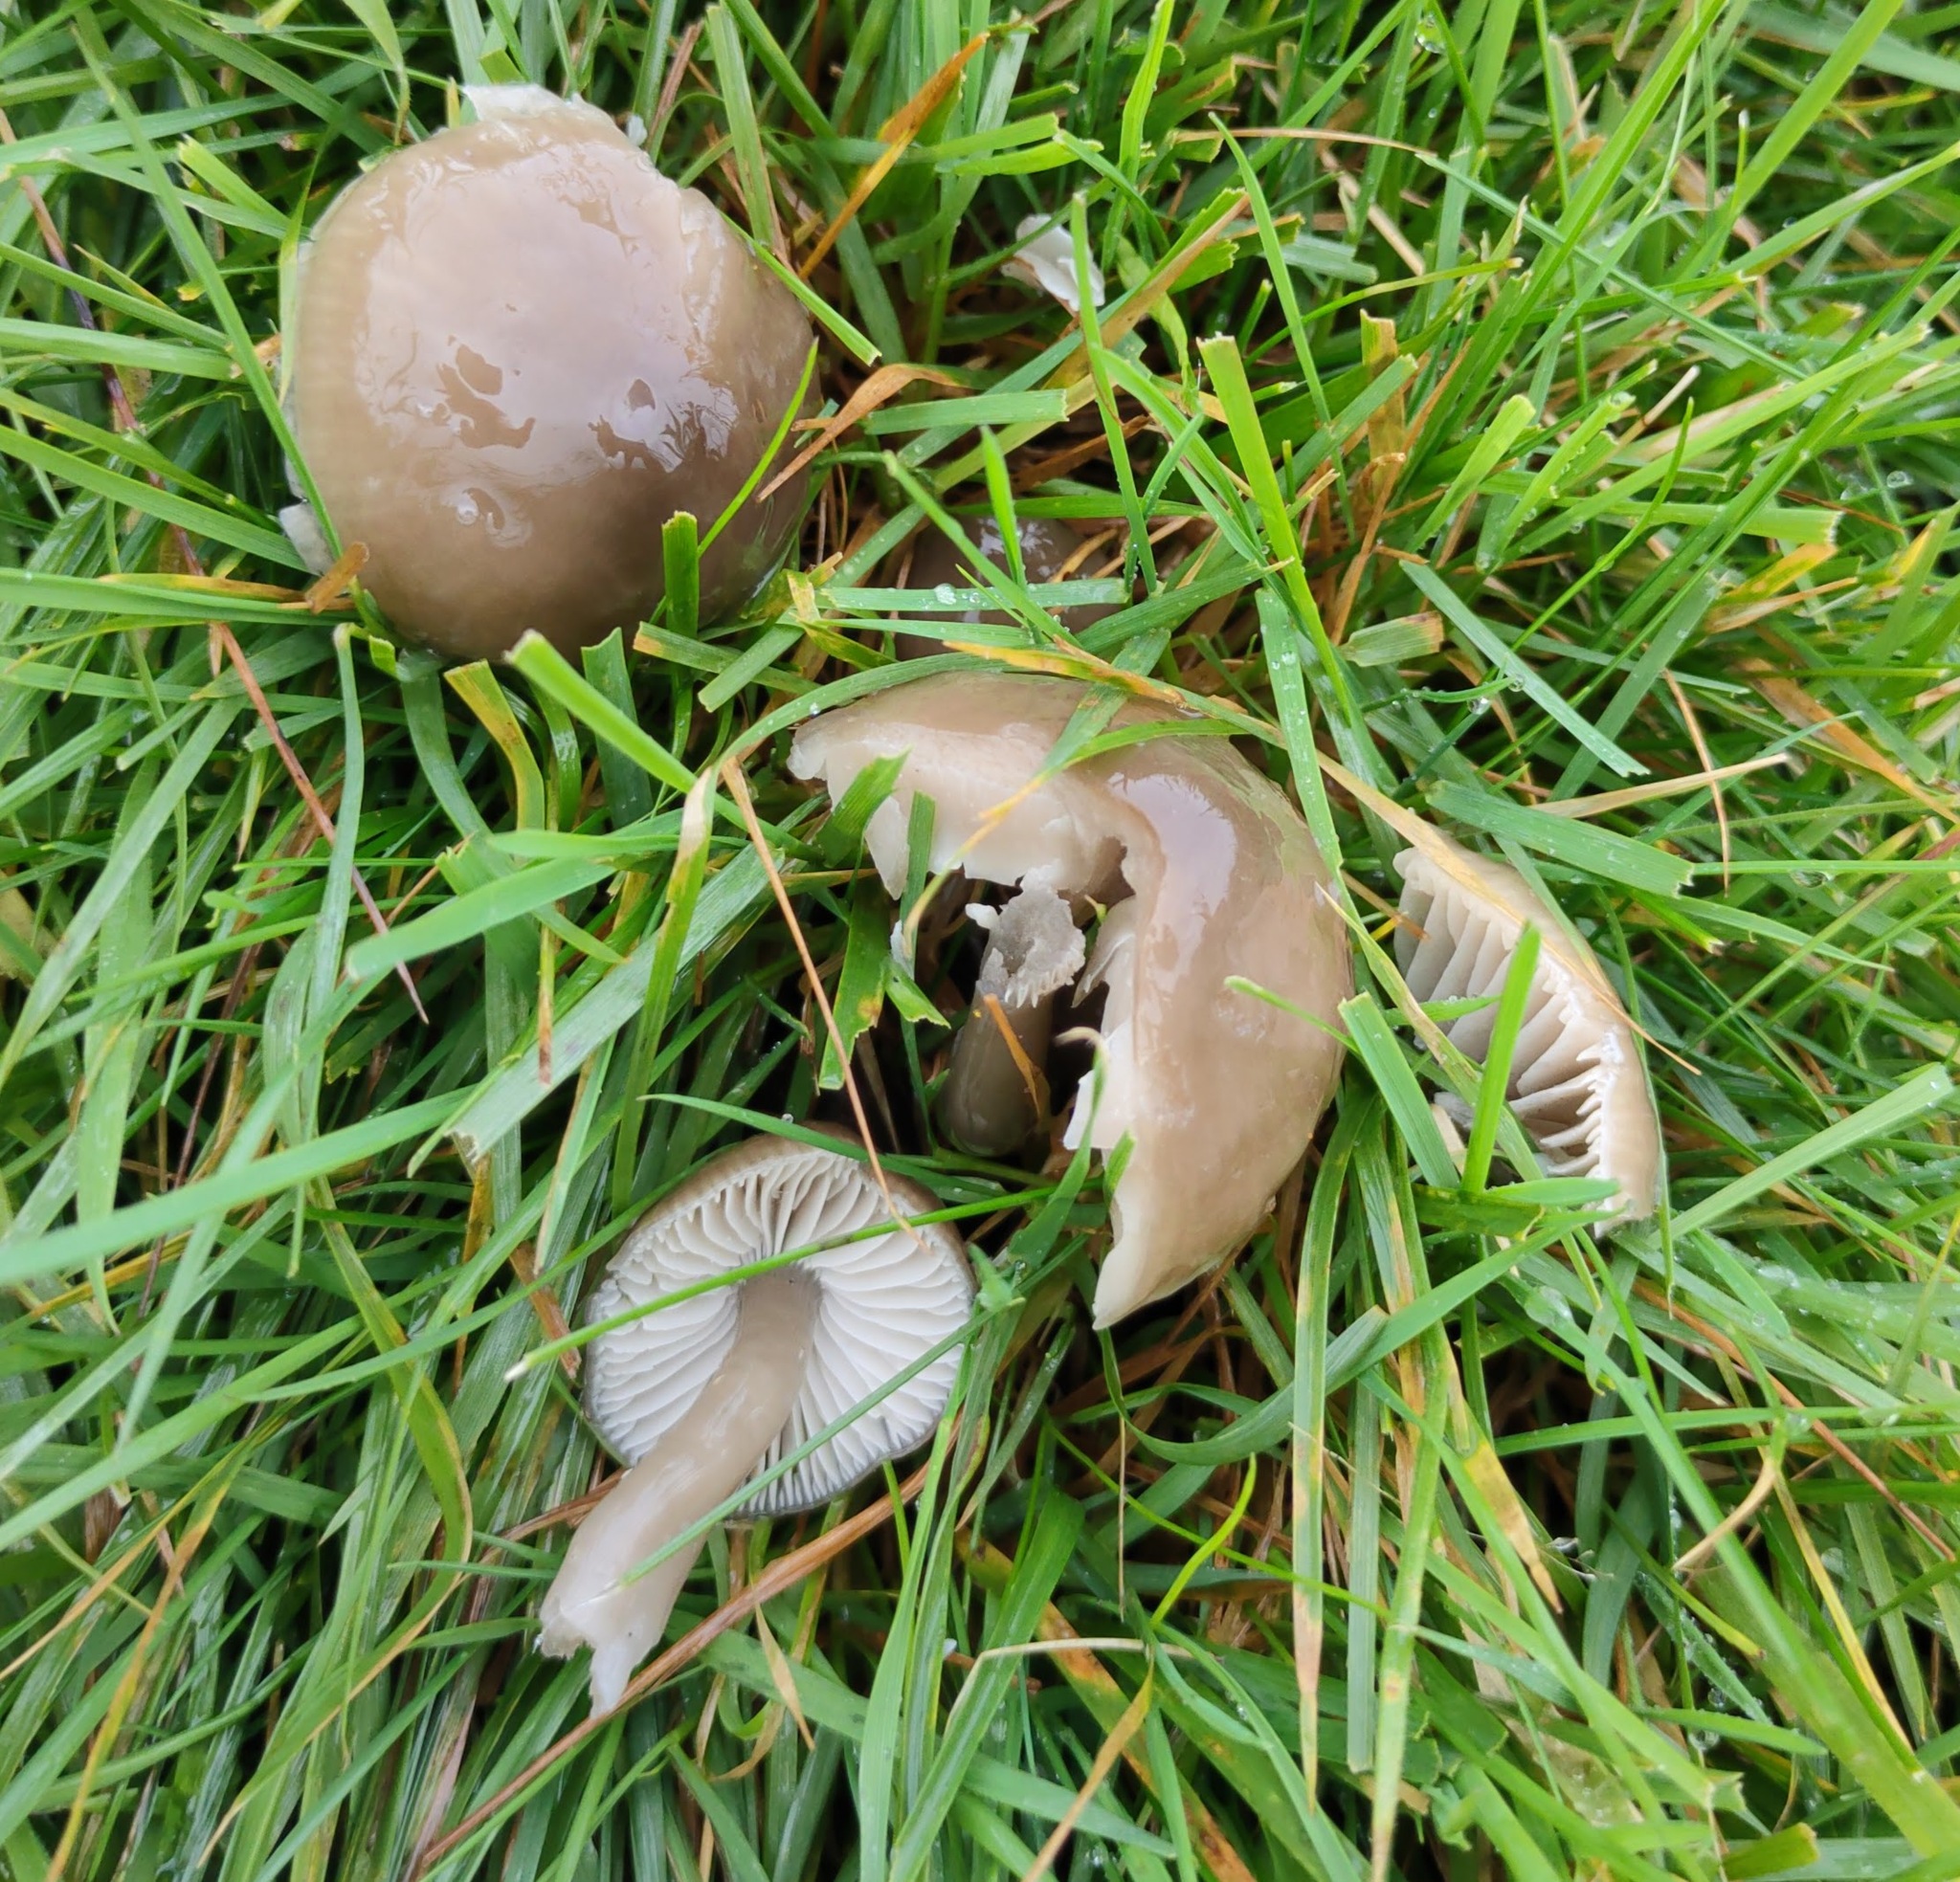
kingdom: Fungi
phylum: Basidiomycota
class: Agaricomycetes
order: Agaricales
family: Hygrophoraceae
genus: Gliophorus
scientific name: Gliophorus irrigatus
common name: Slimy waxcap
